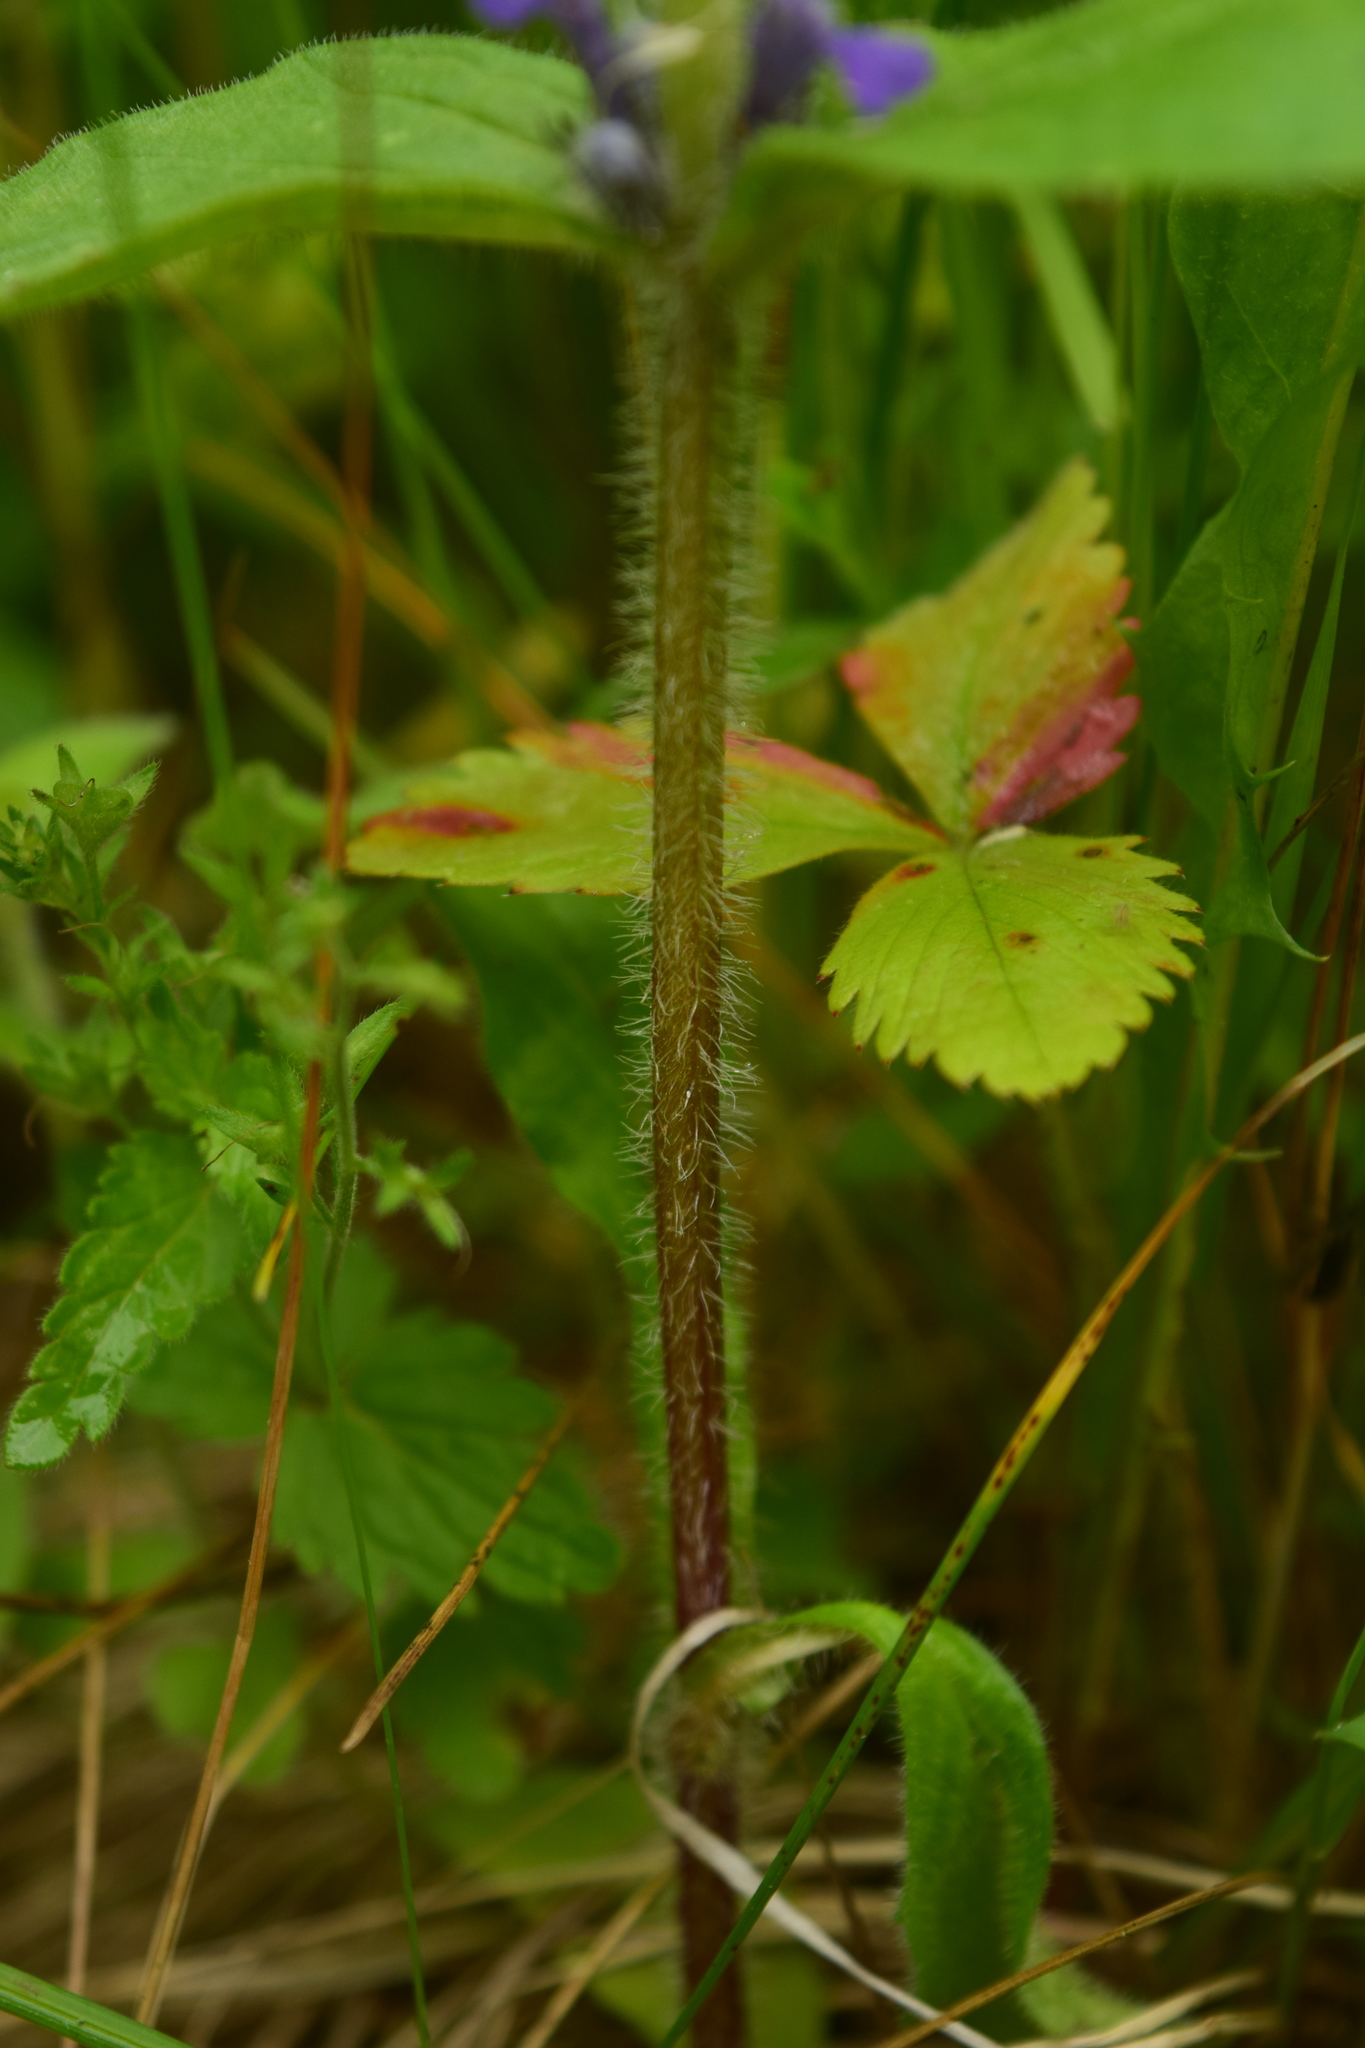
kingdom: Plantae
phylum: Tracheophyta
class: Magnoliopsida
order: Lamiales
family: Lamiaceae
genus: Ajuga
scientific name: Ajuga genevensis
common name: Blue bugle
